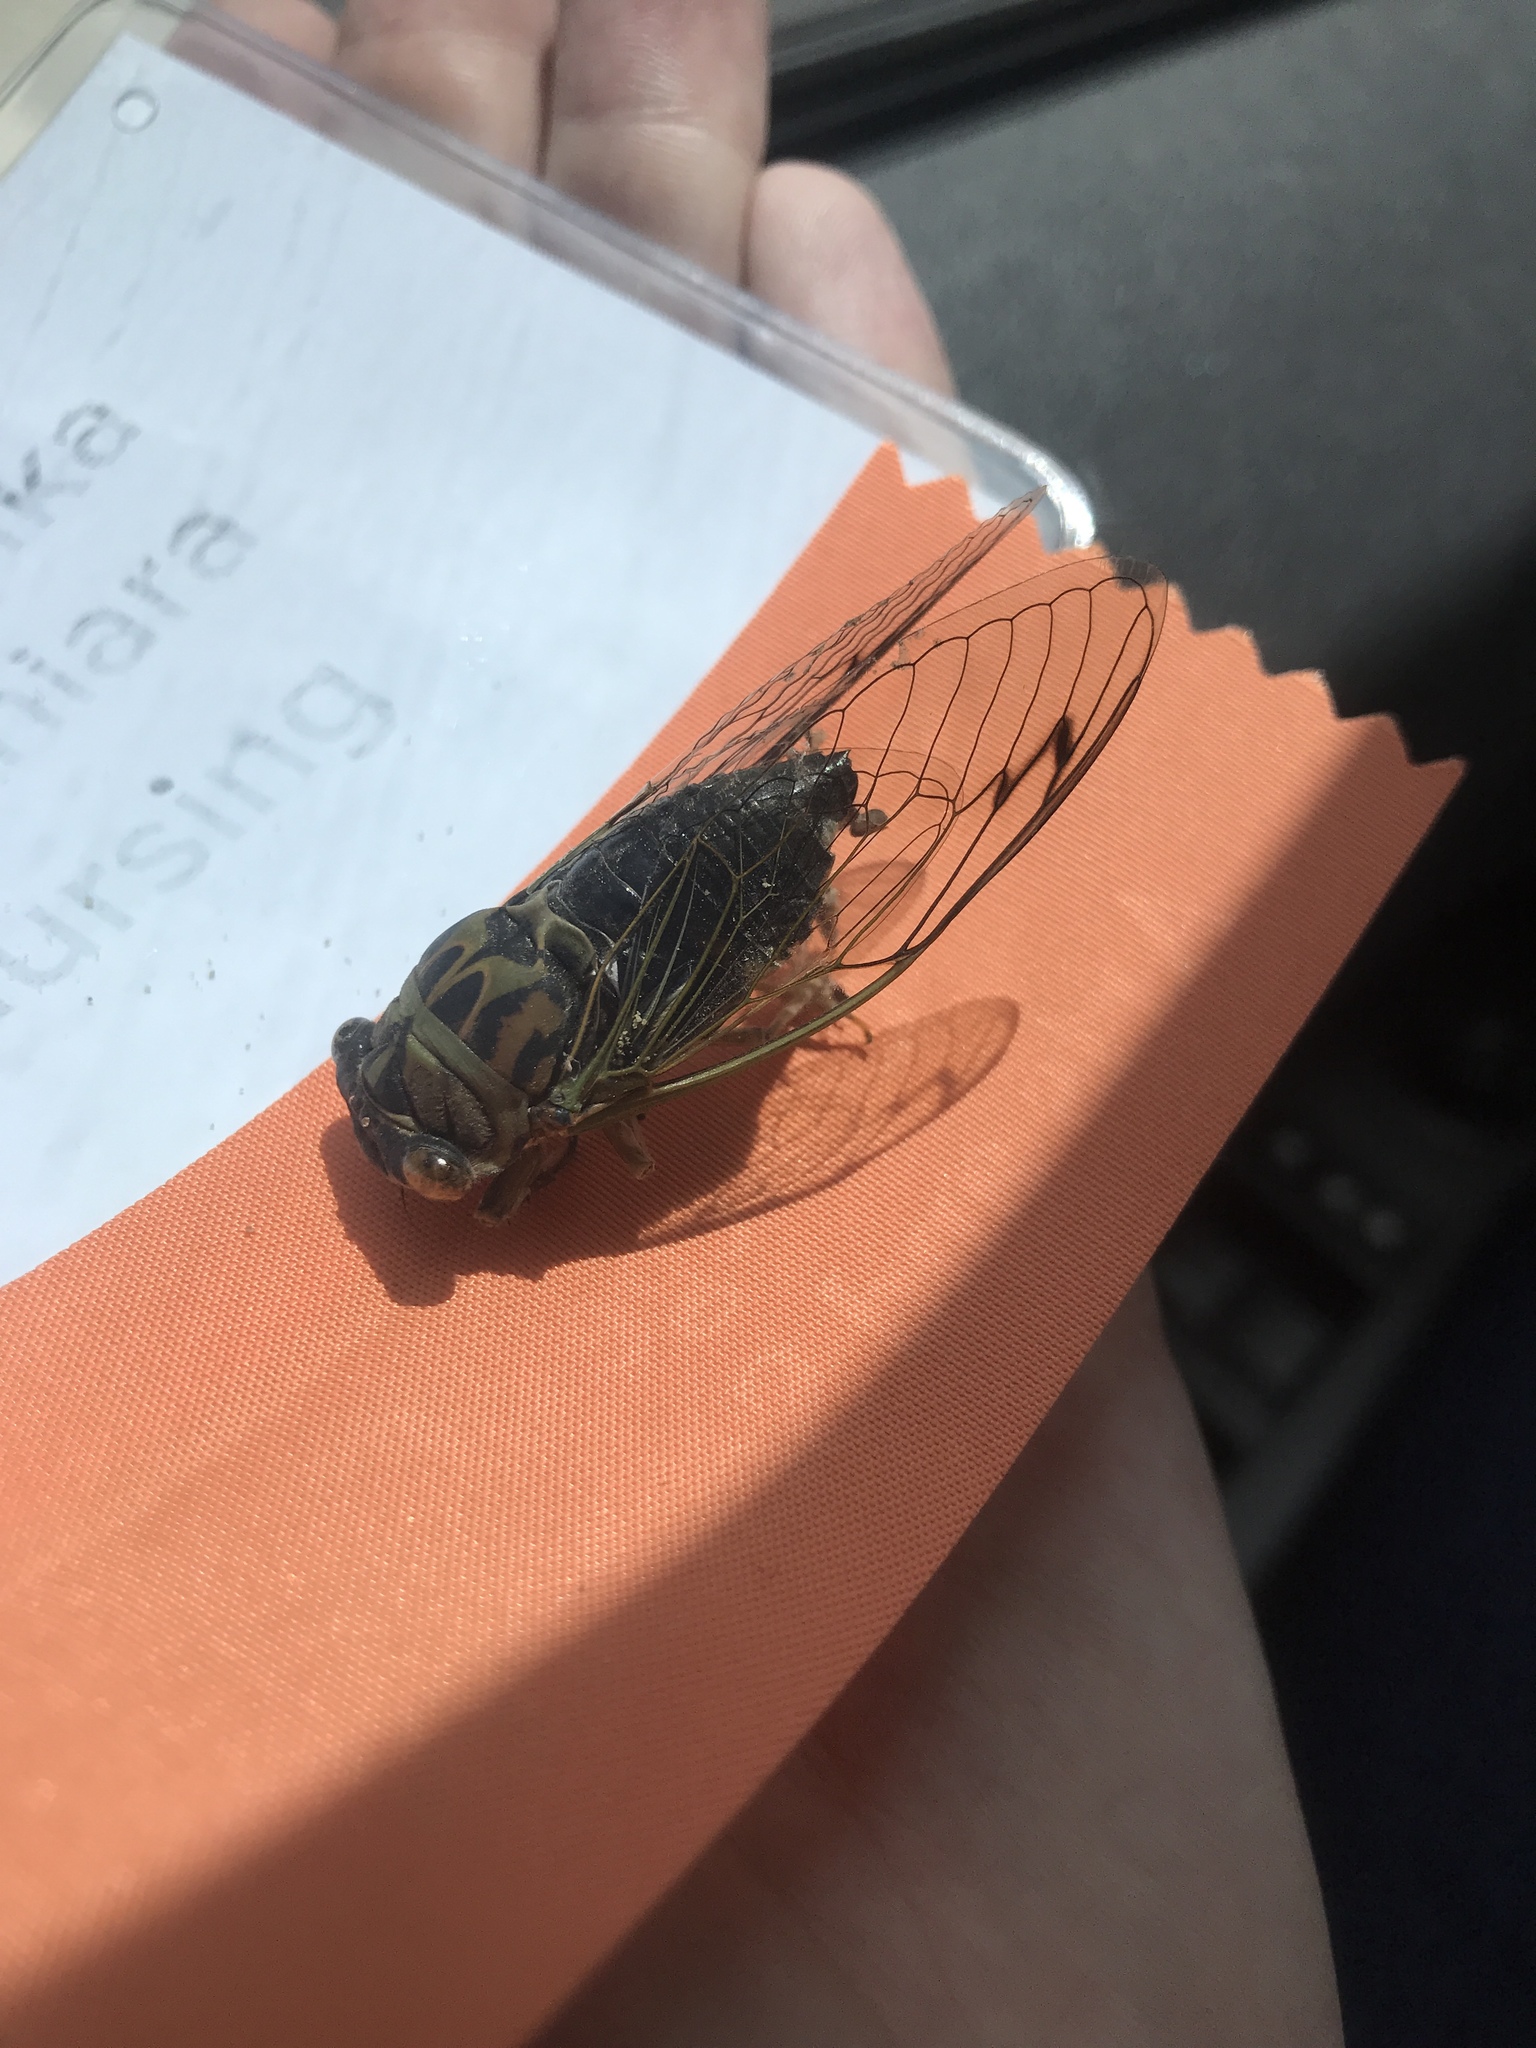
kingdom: Animalia
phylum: Arthropoda
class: Insecta
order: Hemiptera
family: Cicadidae
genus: Neotibicen
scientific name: Neotibicen pruinosus
